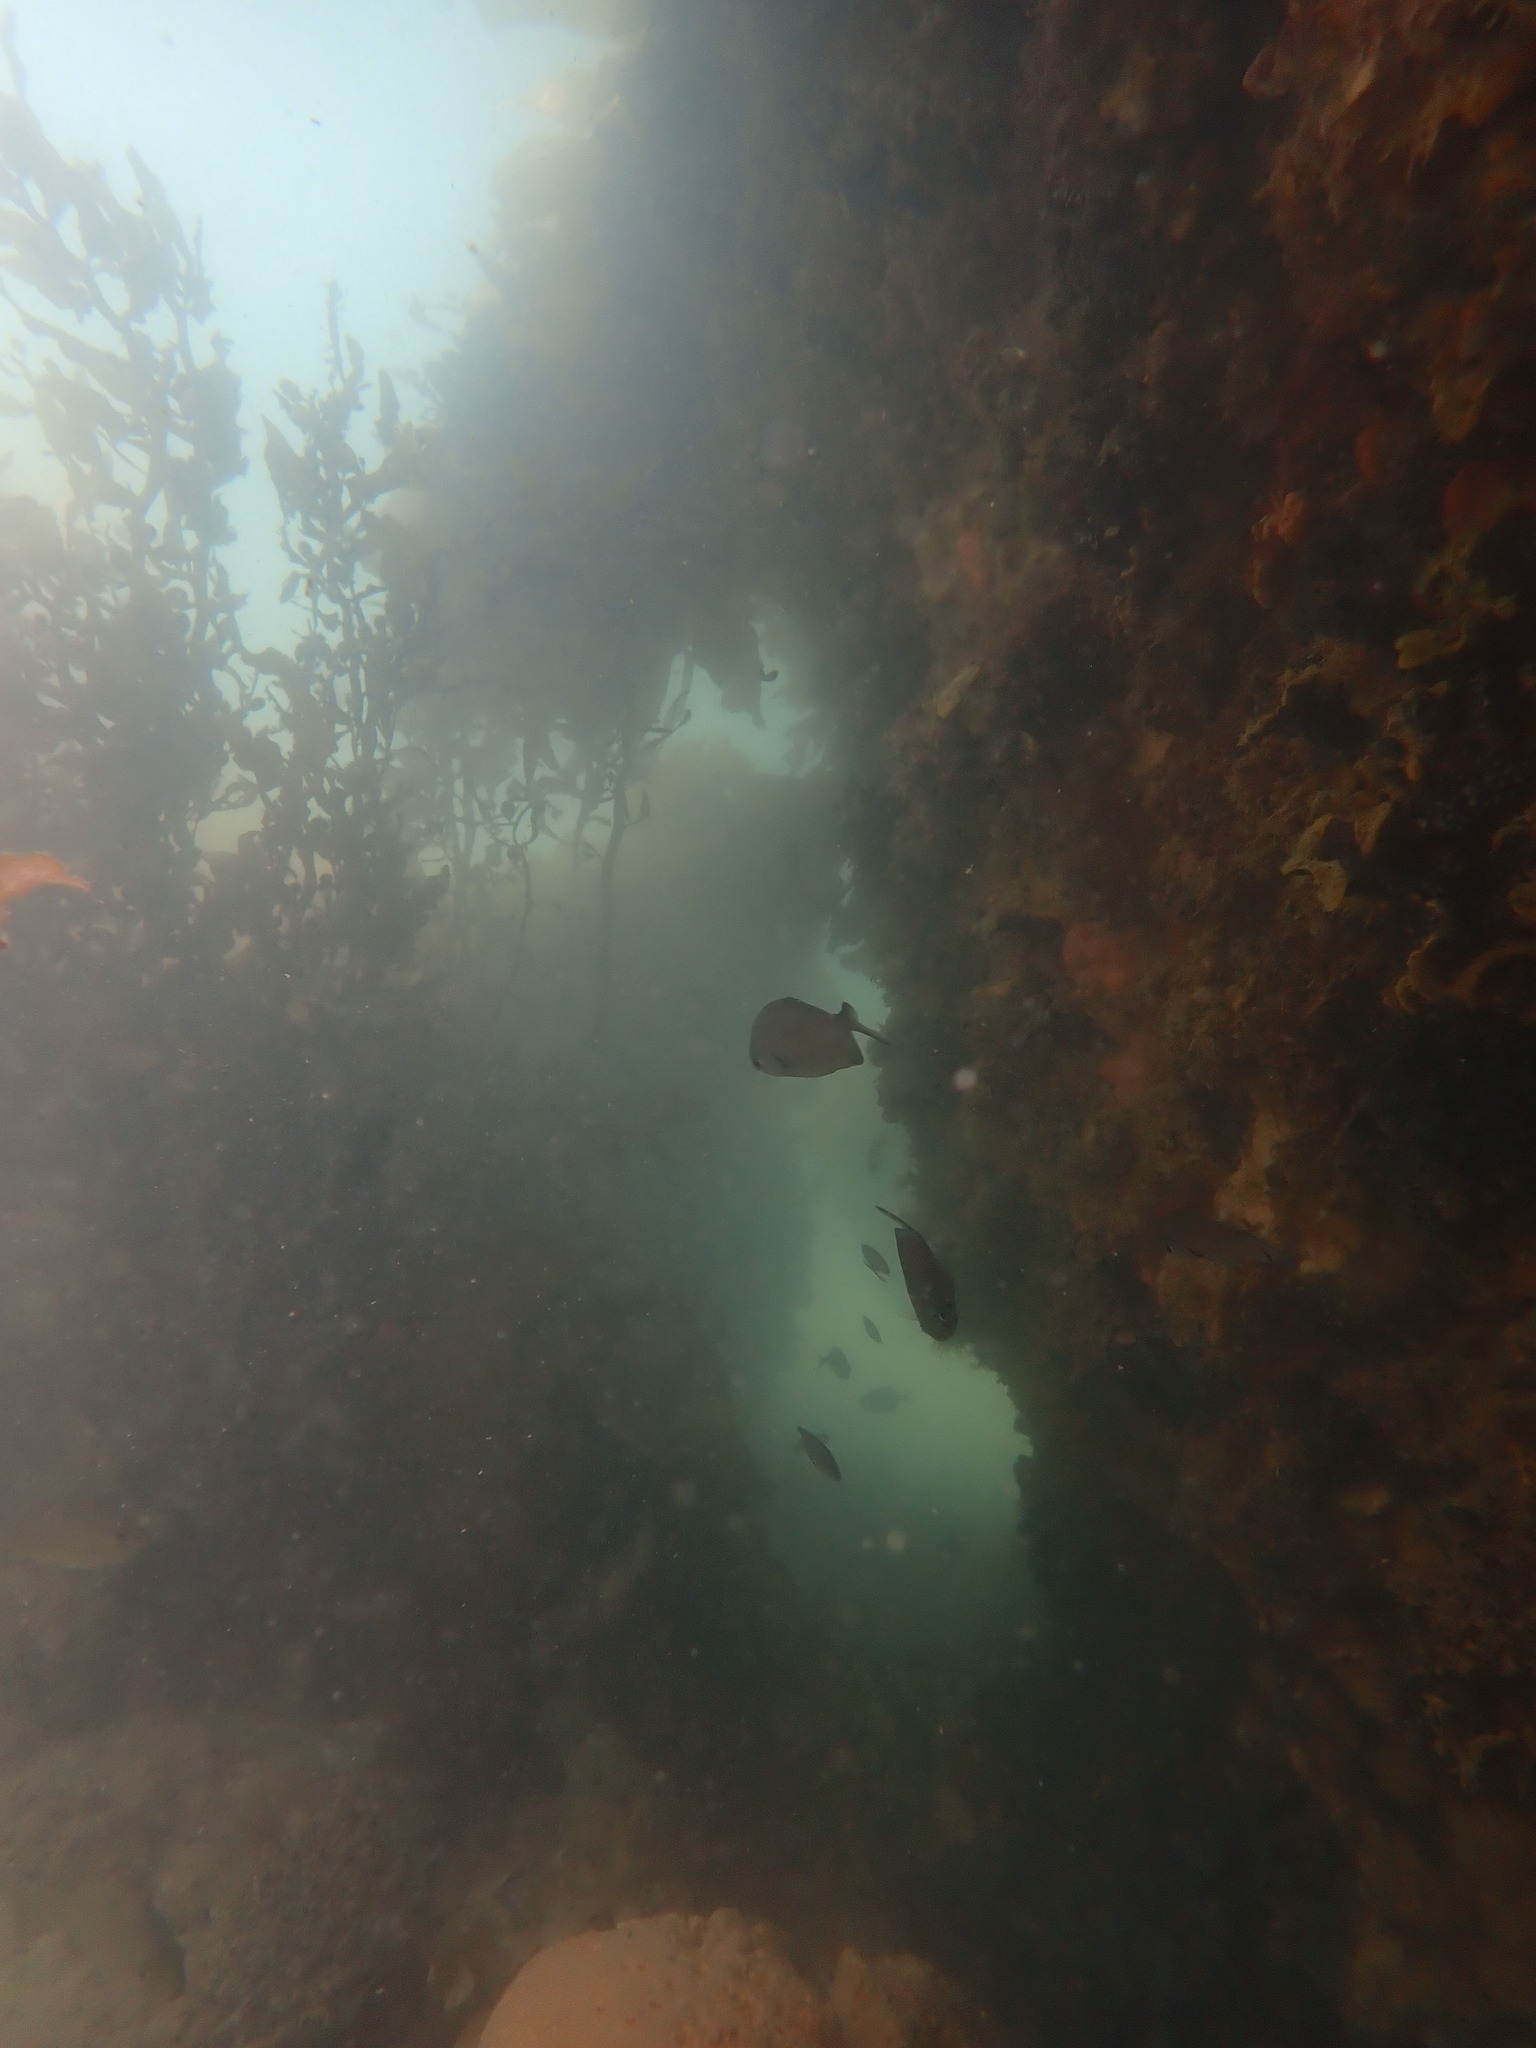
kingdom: Animalia
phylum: Chordata
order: Perciformes
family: Kyphosidae
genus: Scorpis
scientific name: Scorpis lineolata
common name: Sweep
